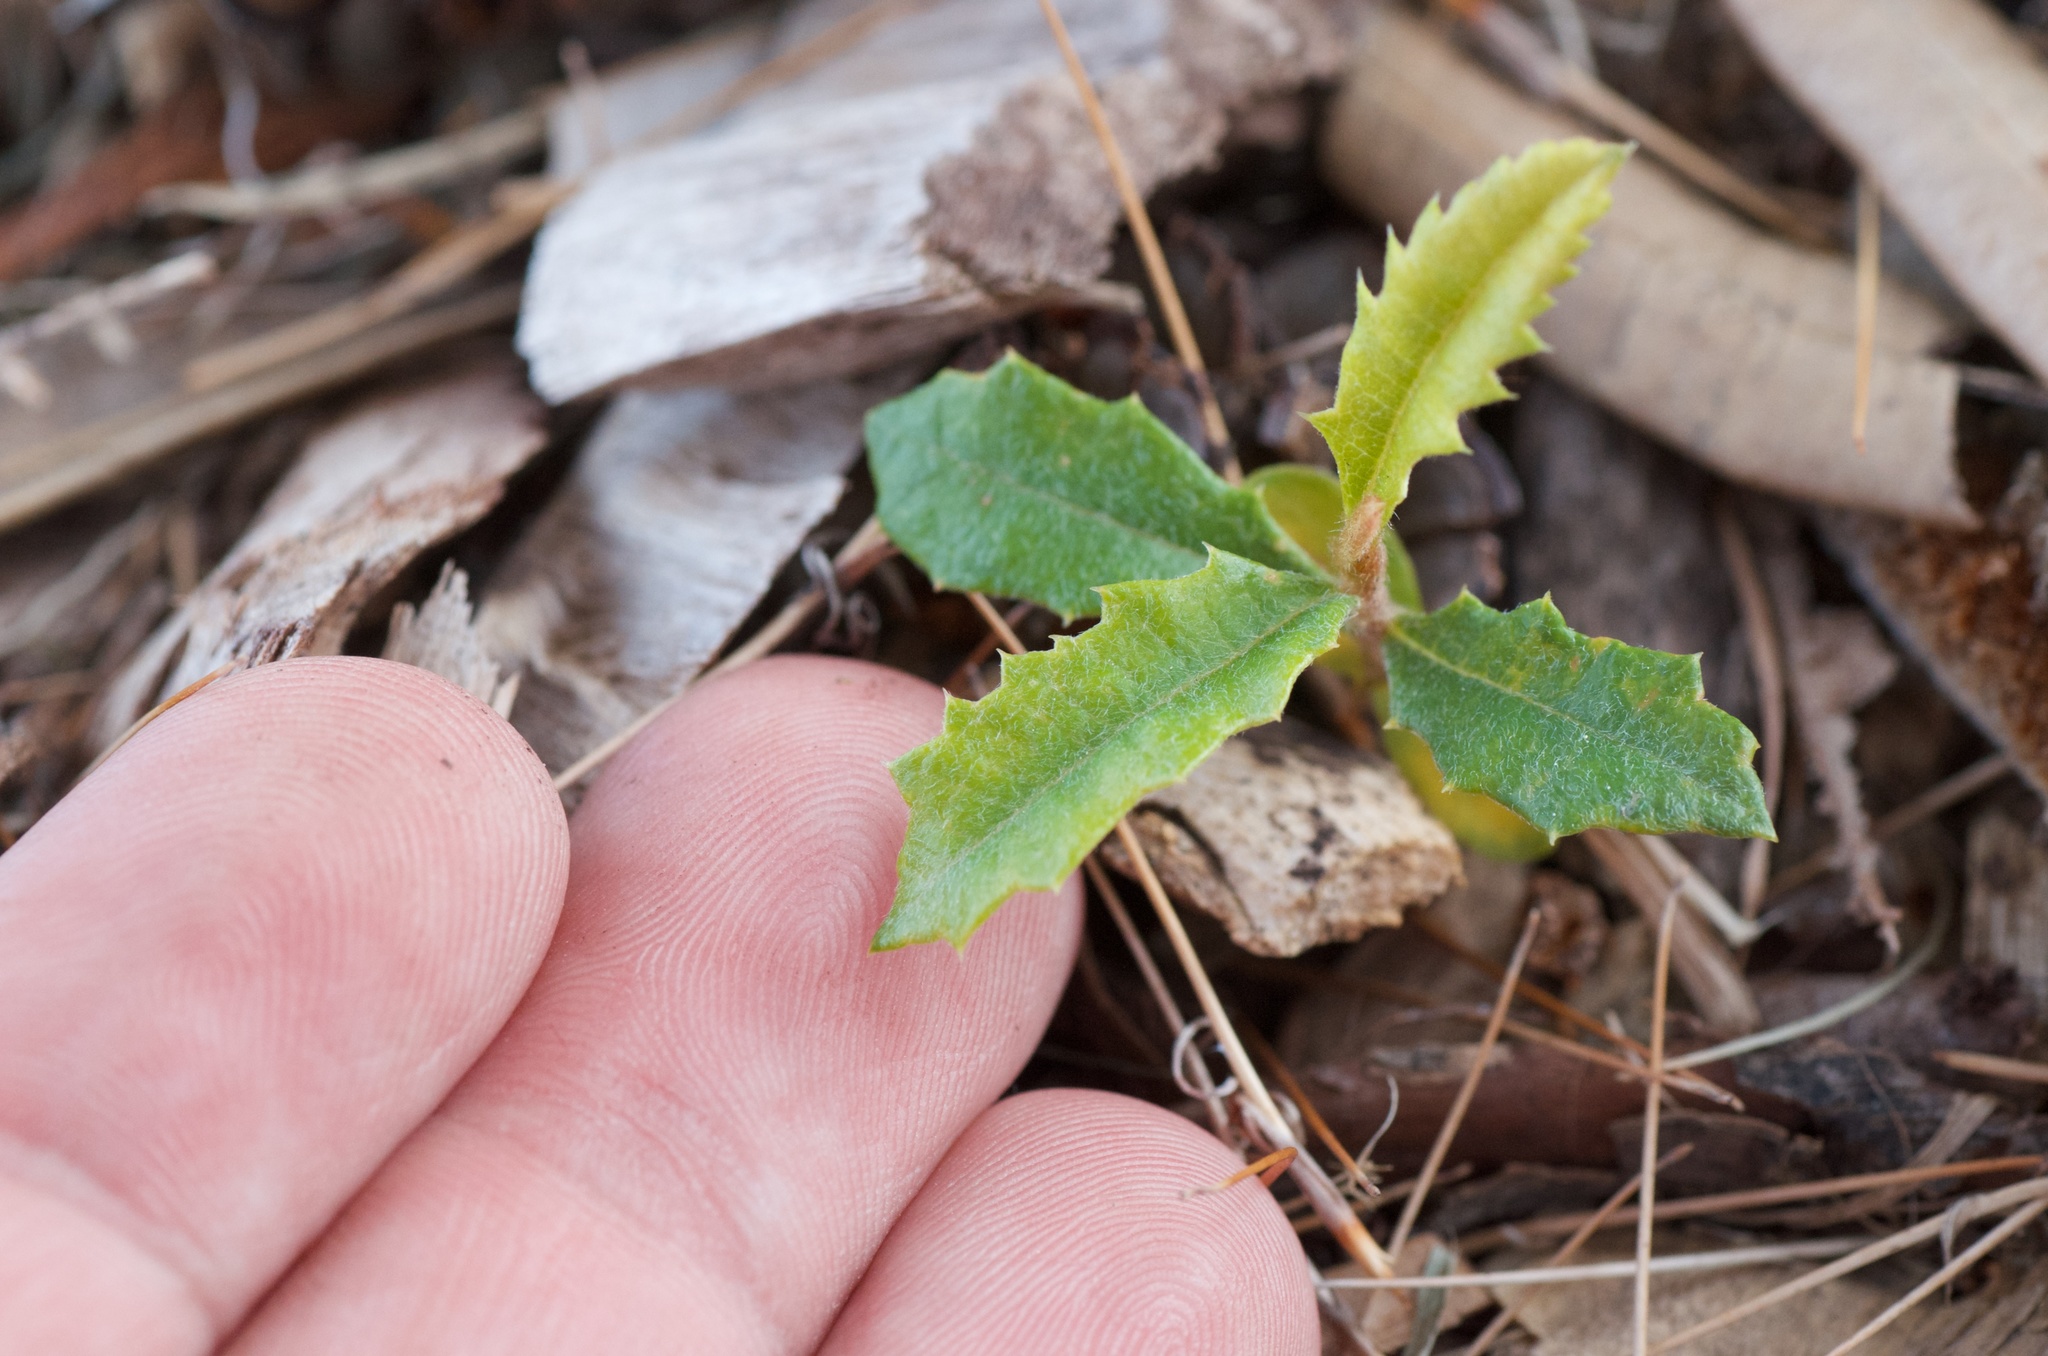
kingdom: Plantae
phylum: Tracheophyta
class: Magnoliopsida
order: Proteales
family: Proteaceae
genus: Banksia
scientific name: Banksia integrifolia
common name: White-honeysuckle
